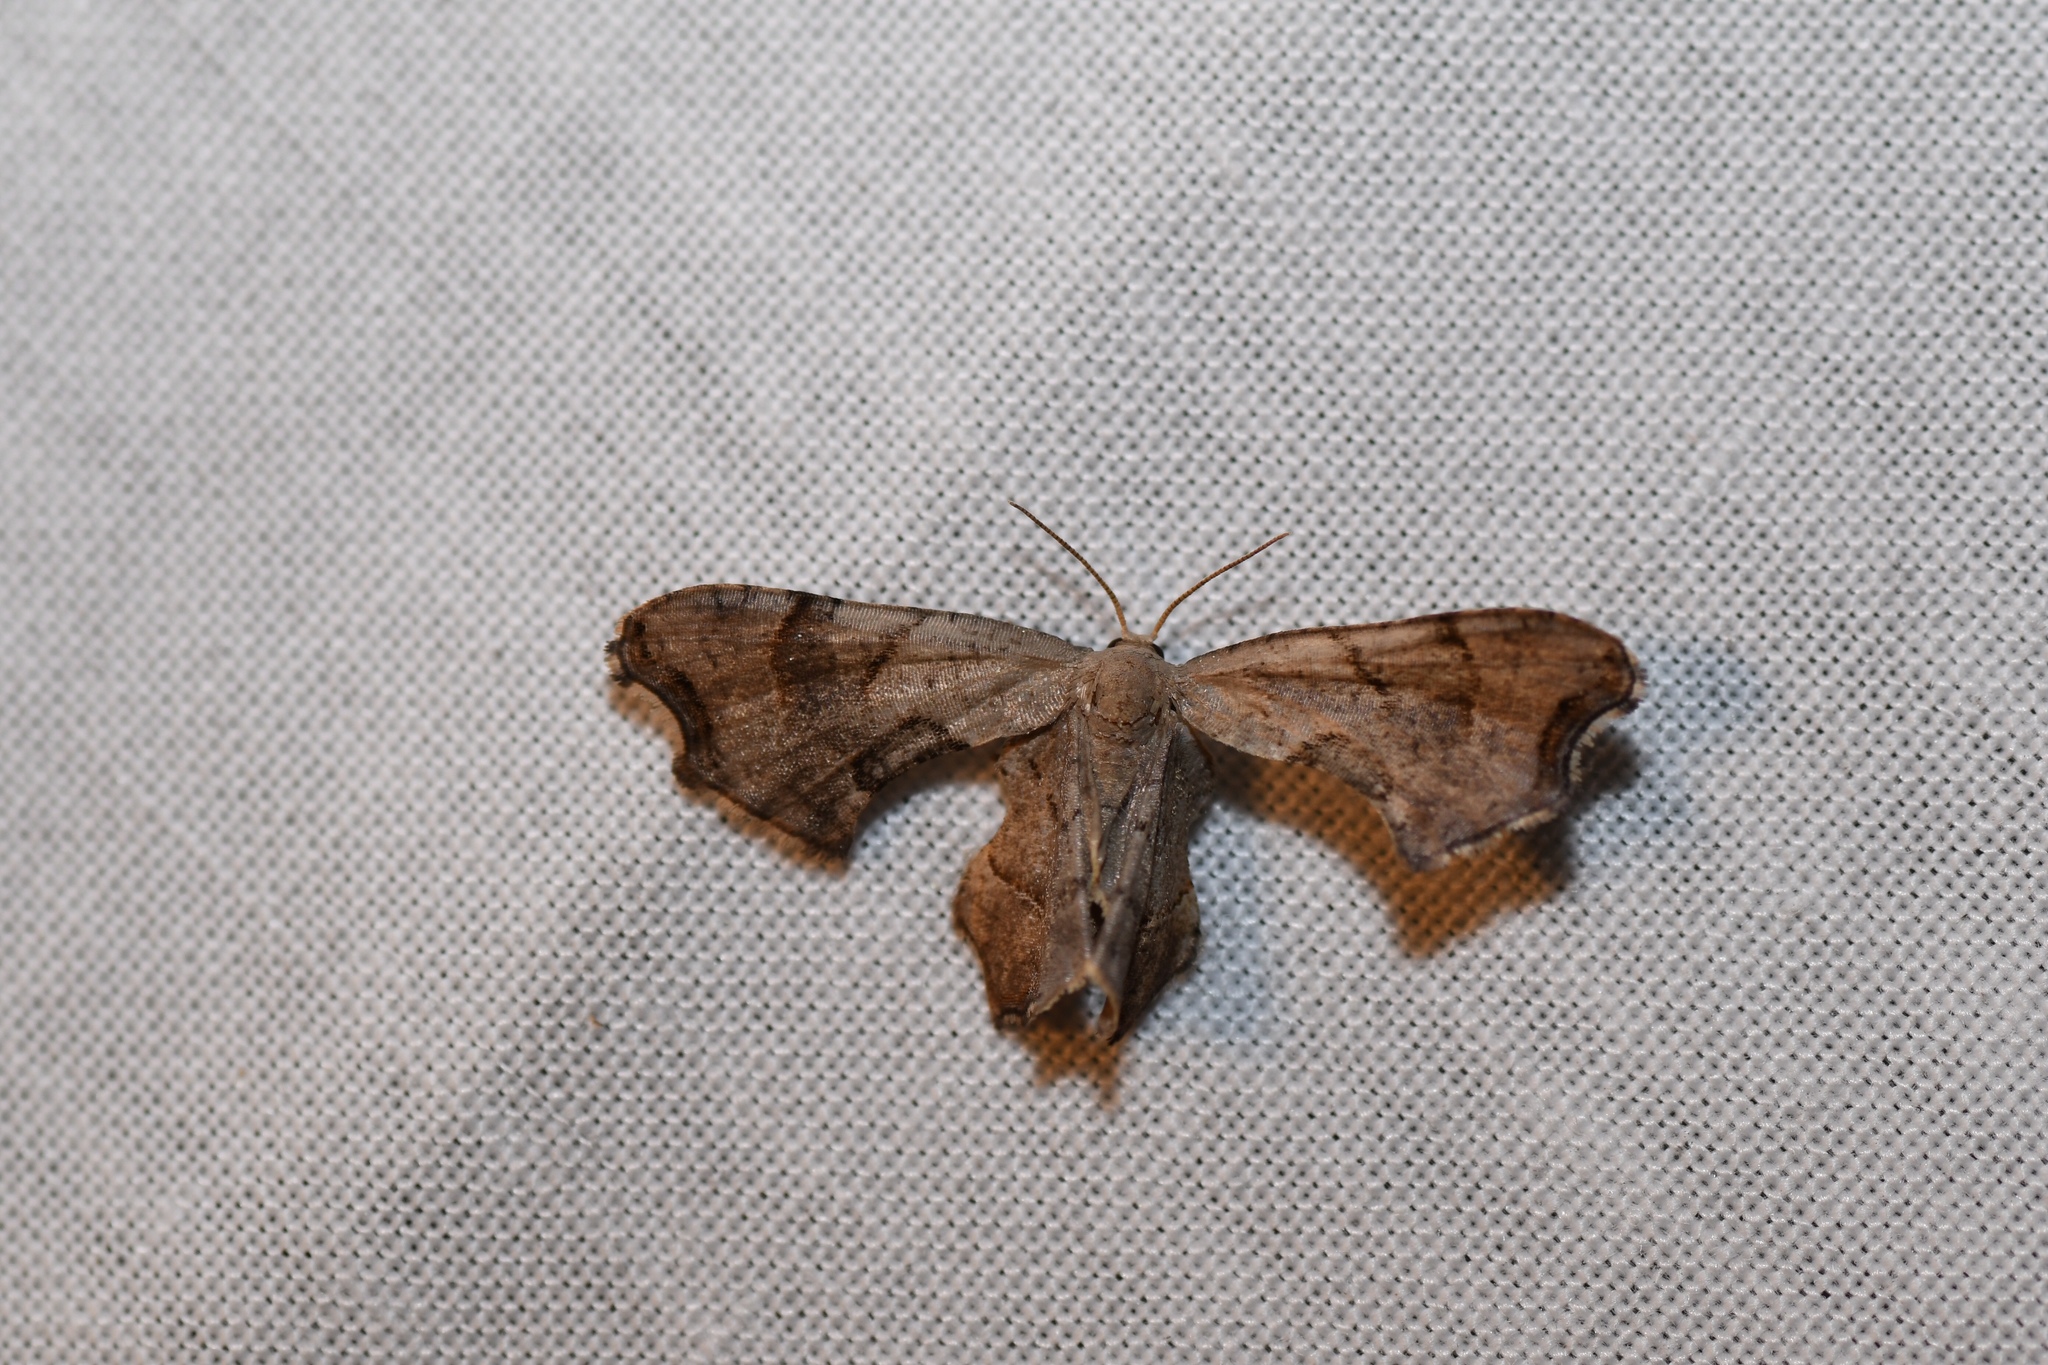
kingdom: Animalia
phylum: Arthropoda
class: Insecta
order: Lepidoptera
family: Uraniidae
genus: Epiplema
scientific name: Epiplema Calledapteryx dryopterata
